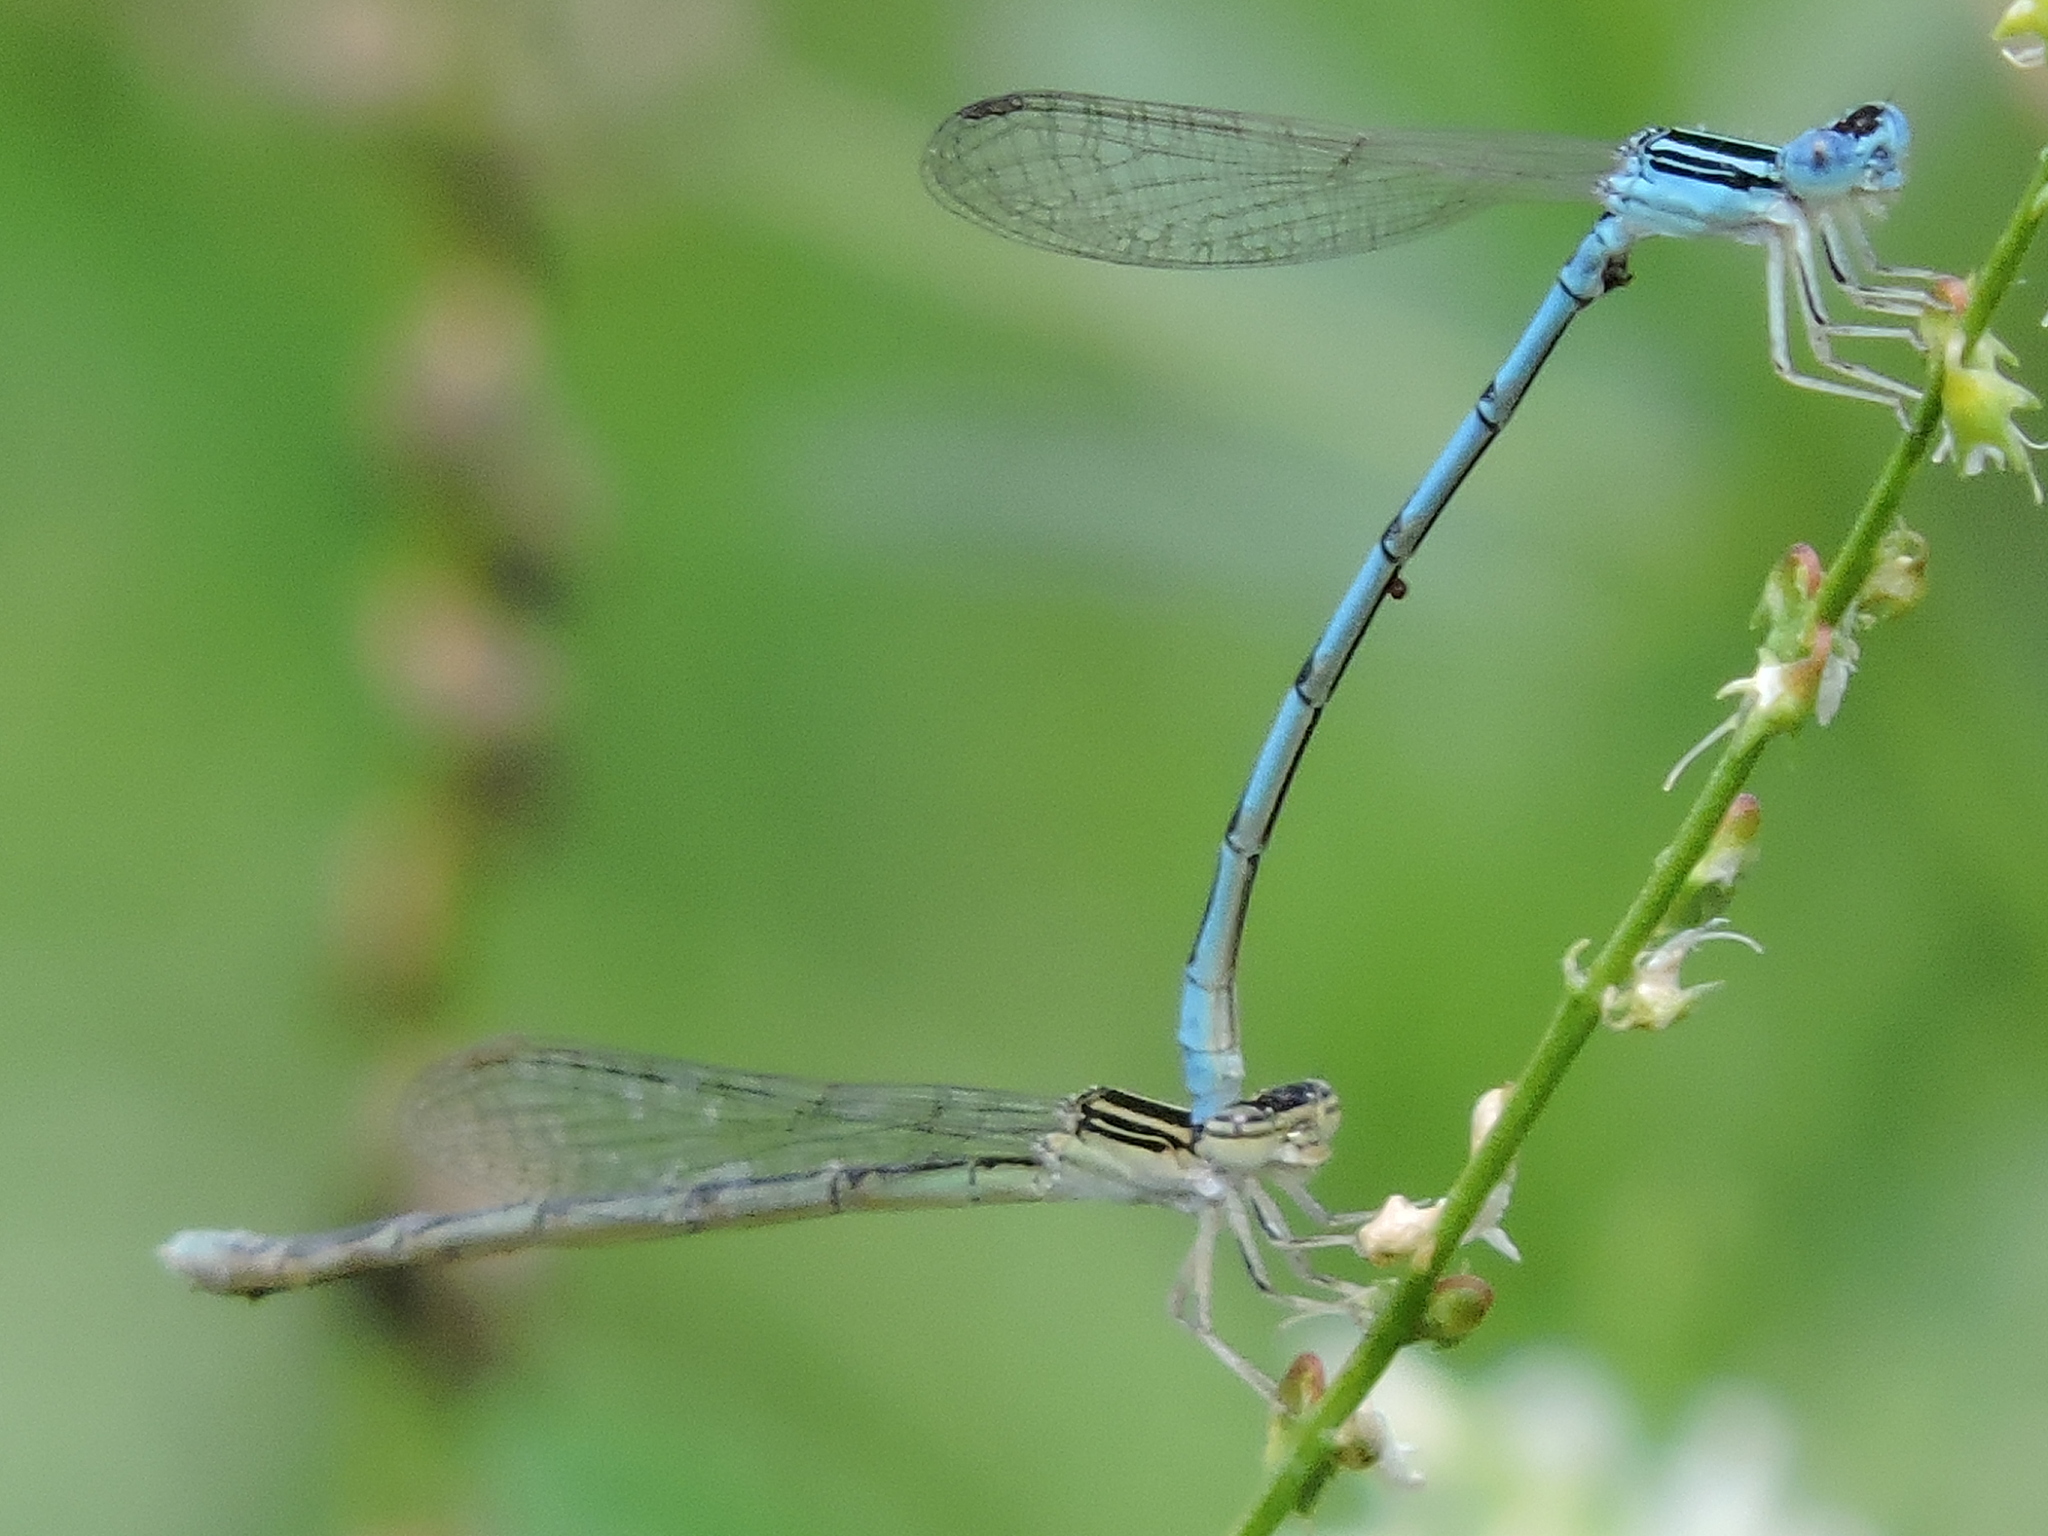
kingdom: Animalia
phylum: Arthropoda
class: Insecta
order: Odonata
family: Coenagrionidae
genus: Enallagma
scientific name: Enallagma basidens
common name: Double-striped bluet
